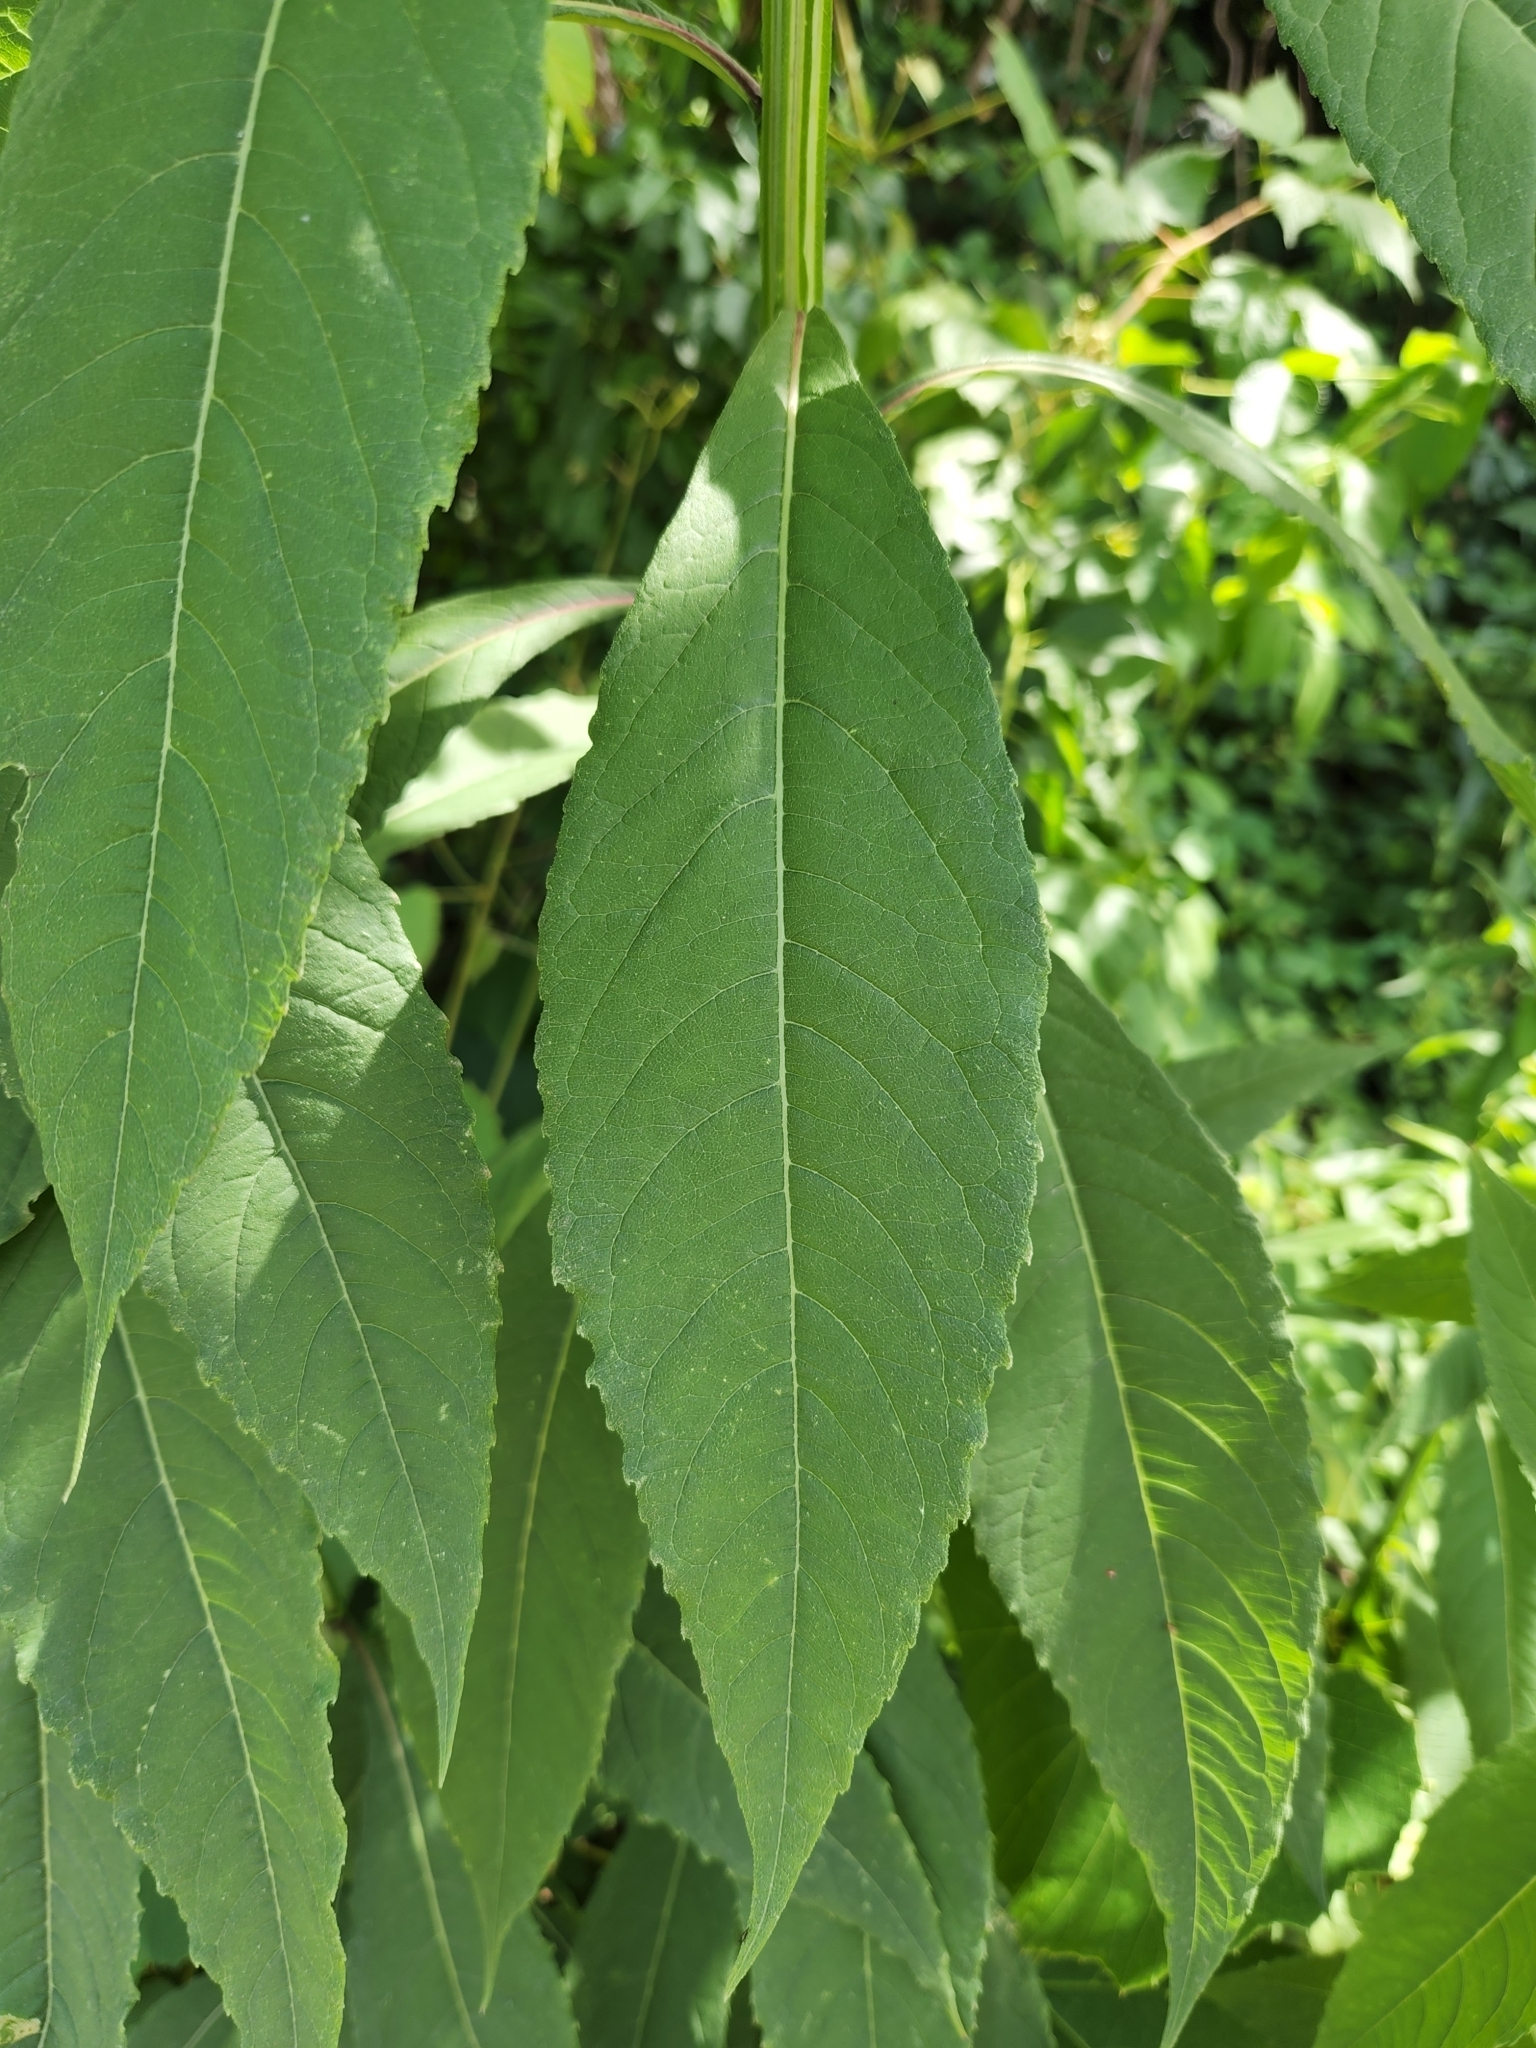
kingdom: Plantae
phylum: Tracheophyta
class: Magnoliopsida
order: Asterales
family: Asteraceae
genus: Verbesina
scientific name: Verbesina alternifolia
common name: Wingstem
